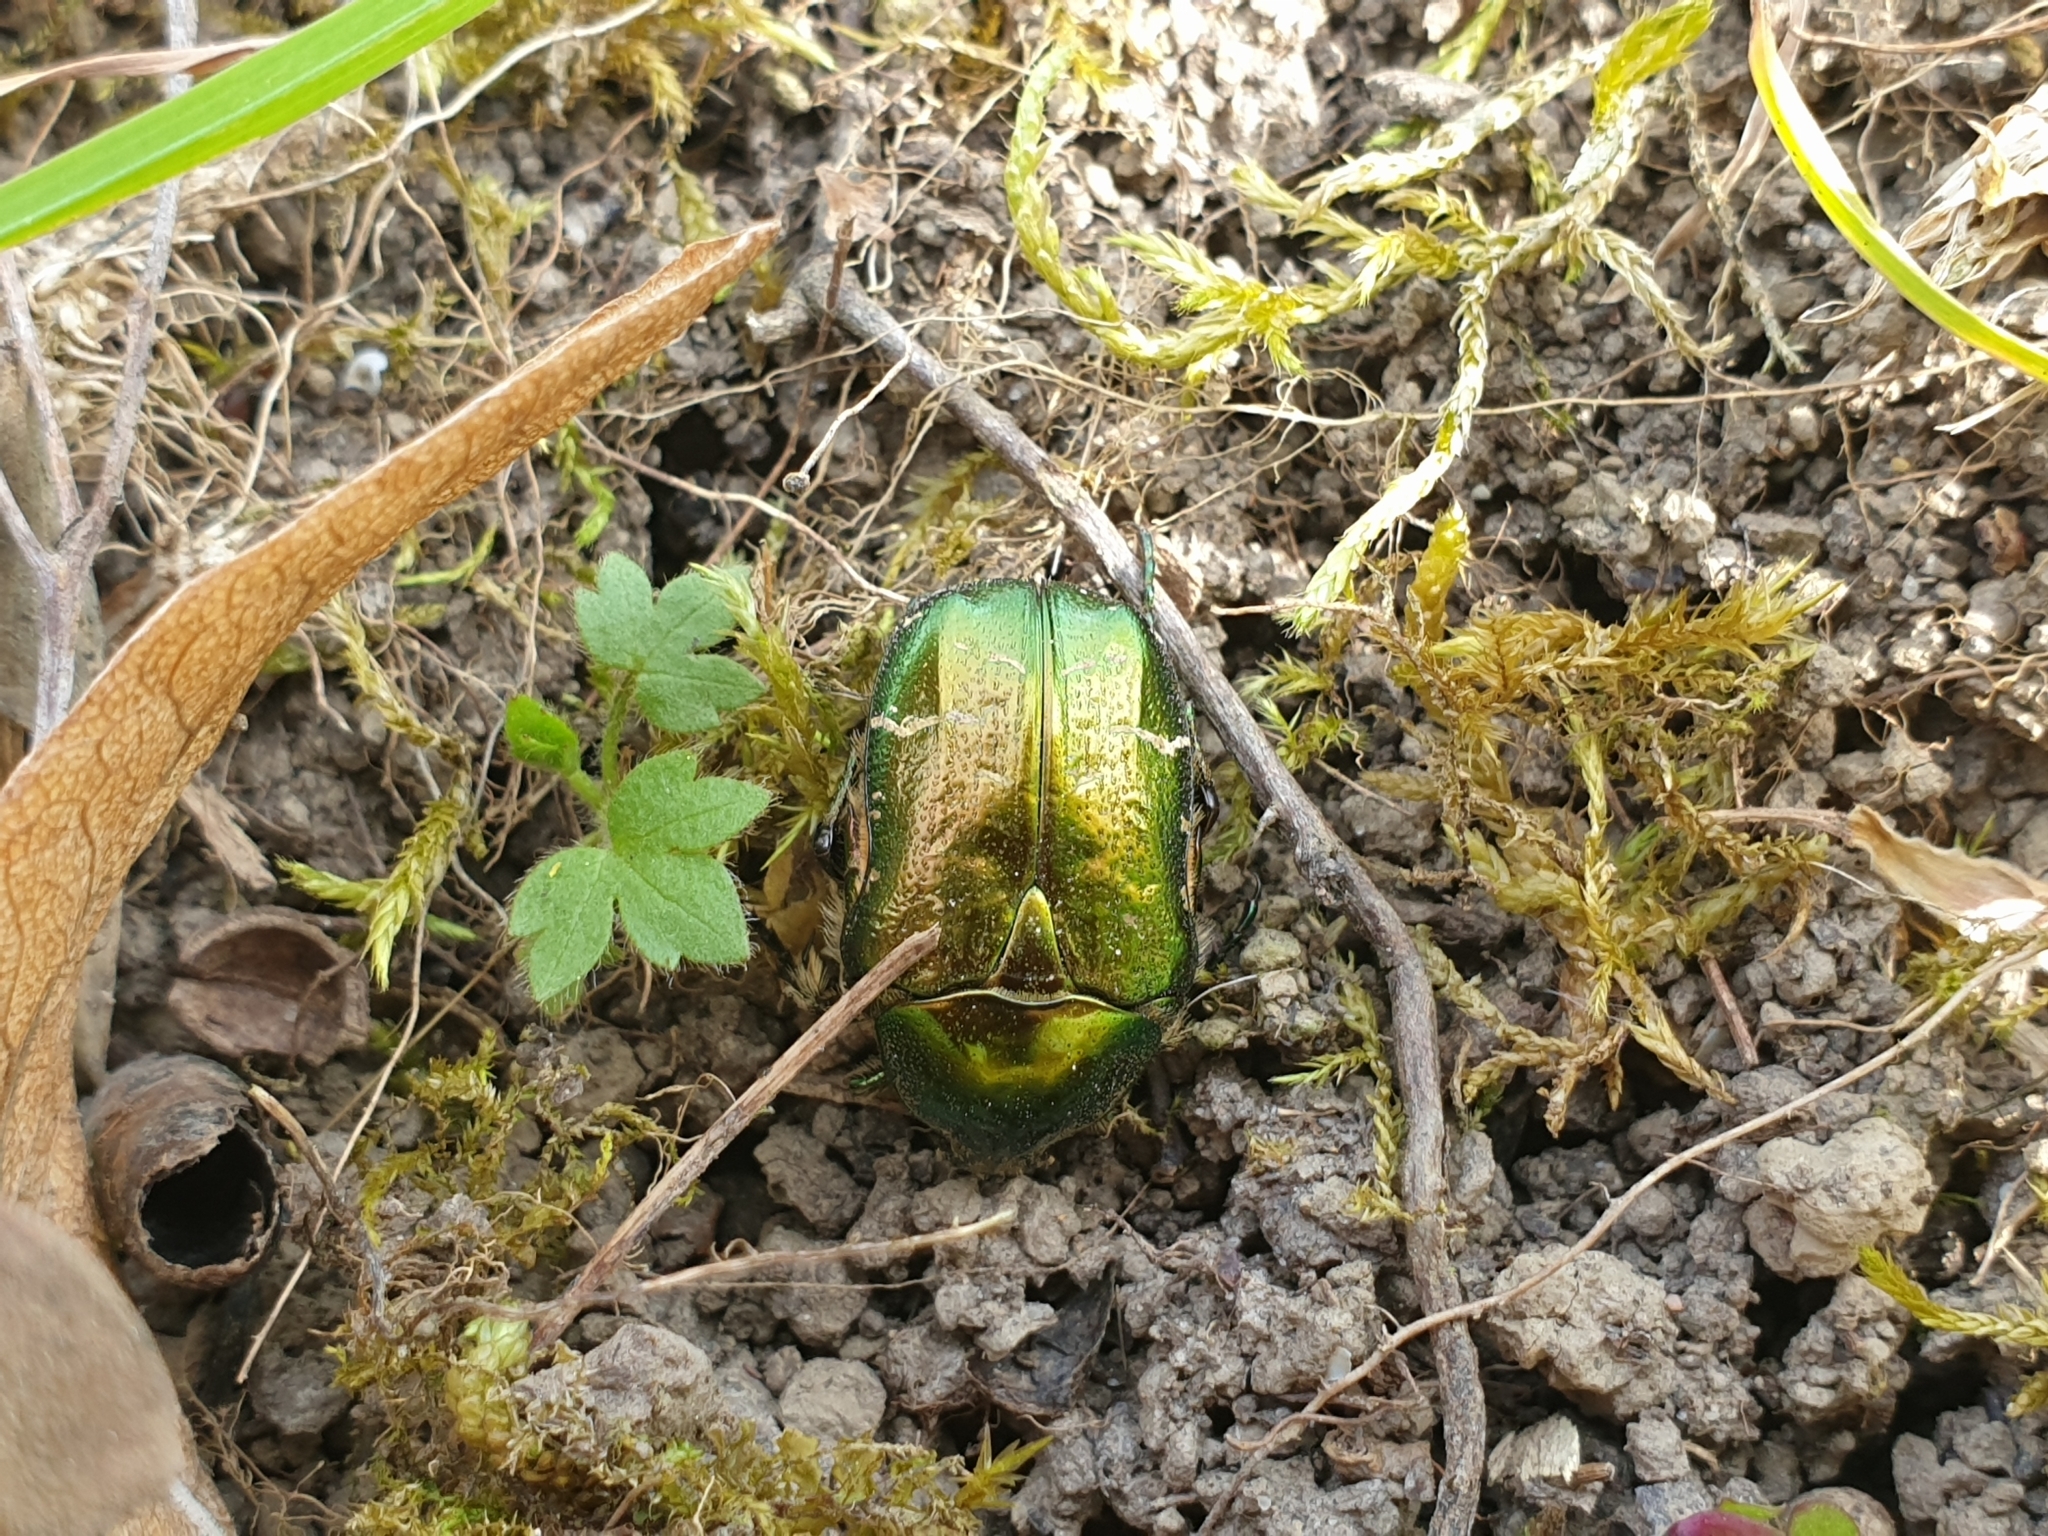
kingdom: Animalia
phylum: Arthropoda
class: Insecta
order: Coleoptera
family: Scarabaeidae
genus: Cetonia
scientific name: Cetonia aurata
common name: Rose chafer
